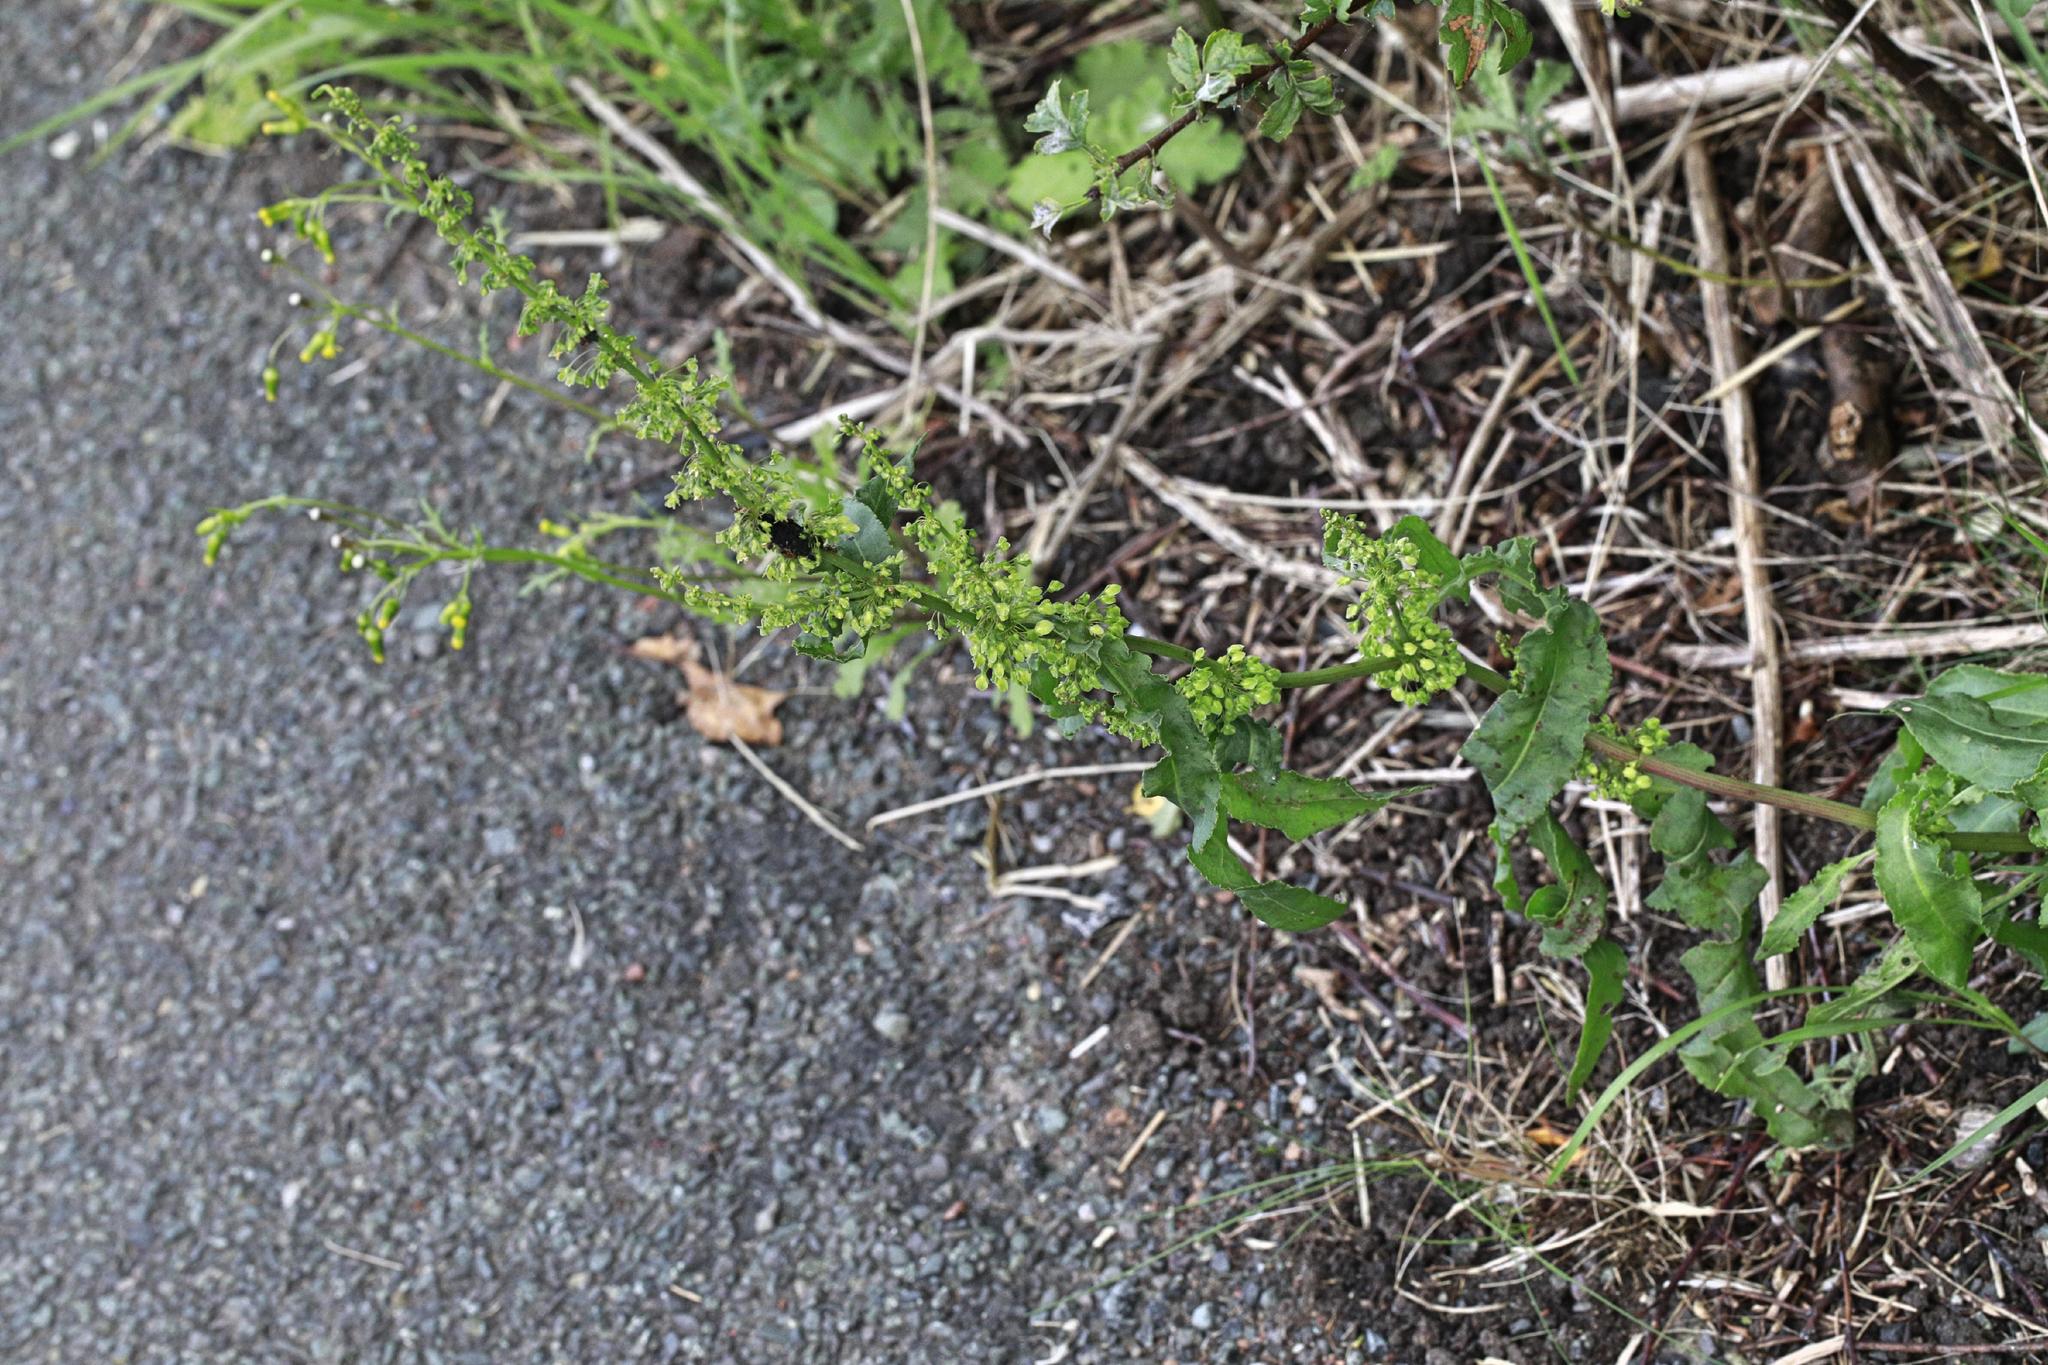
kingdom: Plantae
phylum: Tracheophyta
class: Magnoliopsida
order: Caryophyllales
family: Polygonaceae
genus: Rumex
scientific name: Rumex crispus
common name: Curled dock
